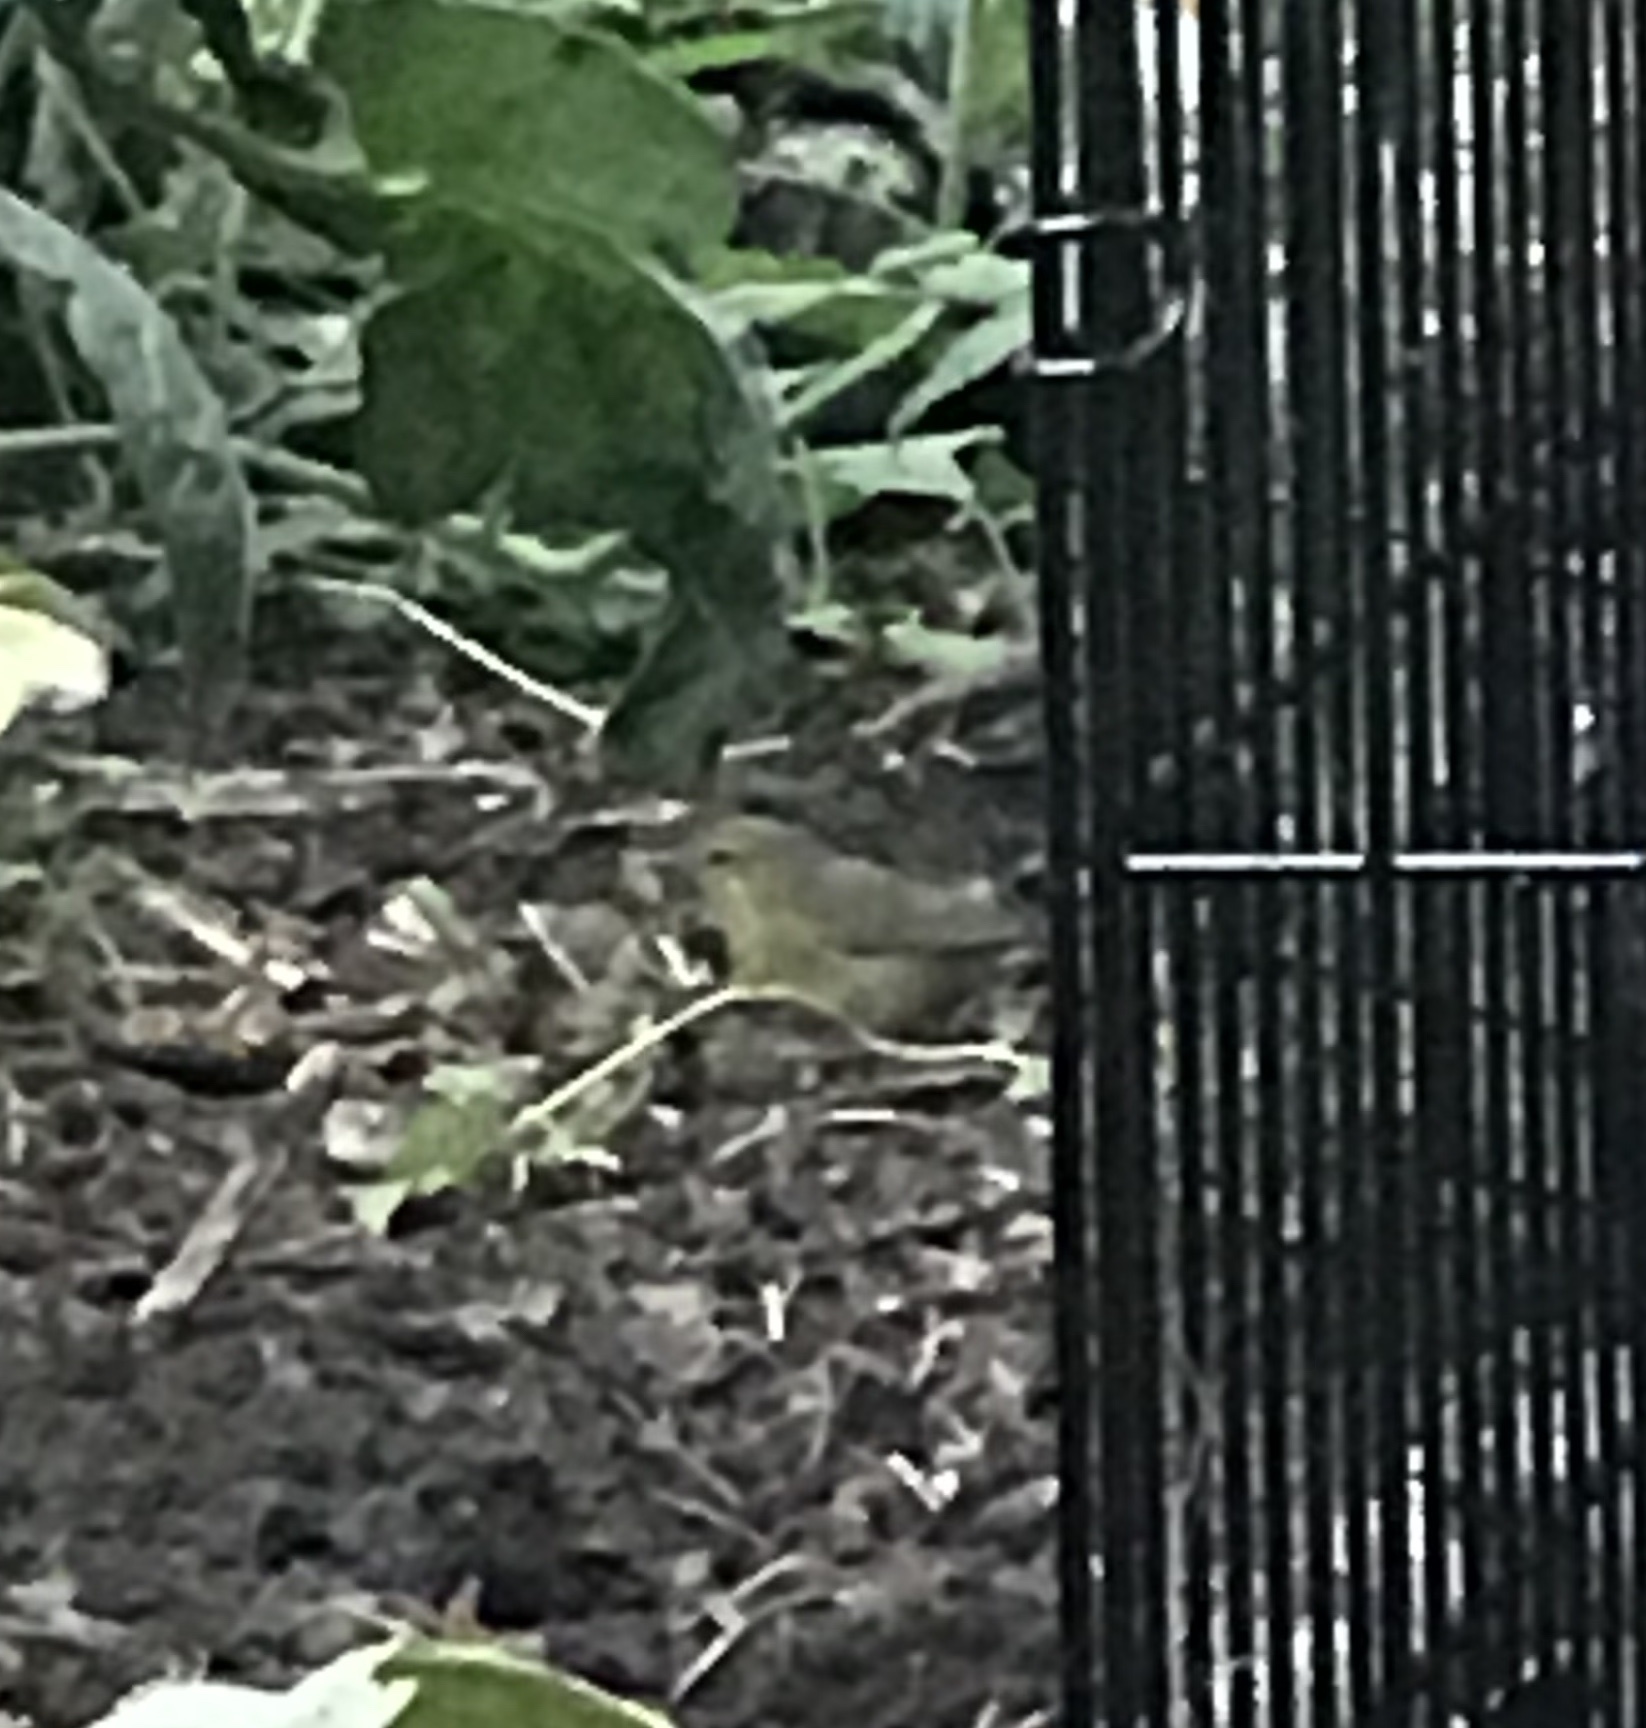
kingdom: Animalia
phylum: Chordata
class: Aves
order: Passeriformes
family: Parulidae
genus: Leiothlypis
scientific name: Leiothlypis celata
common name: Orange-crowned warbler
